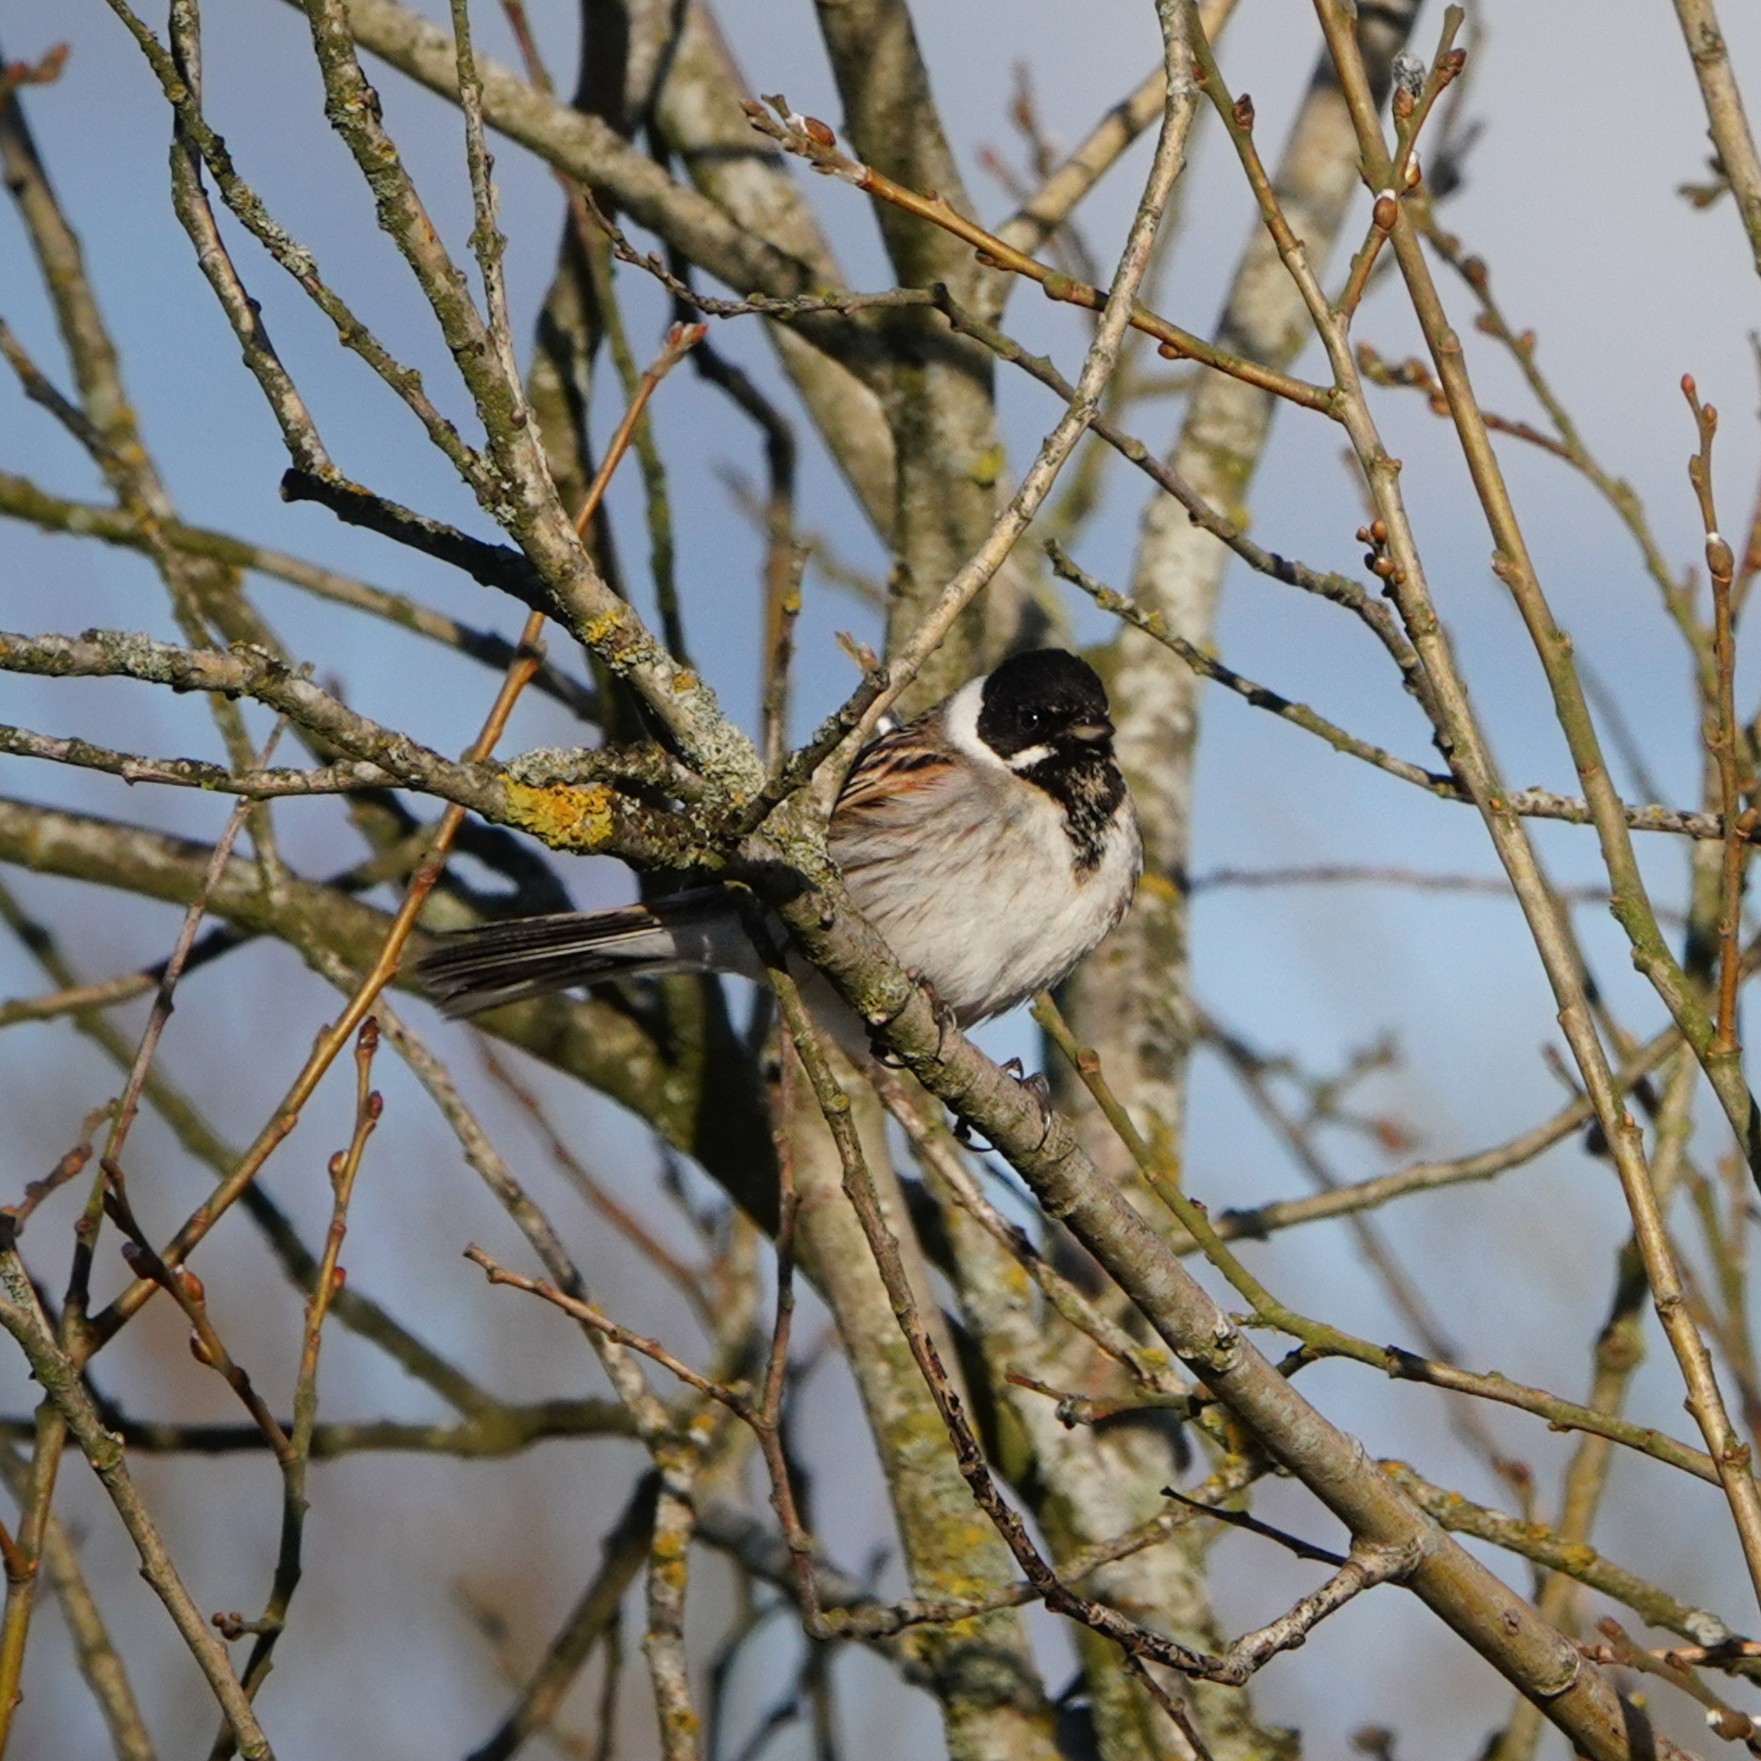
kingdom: Animalia
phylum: Chordata
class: Aves
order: Passeriformes
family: Emberizidae
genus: Emberiza
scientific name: Emberiza schoeniclus
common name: Reed bunting
